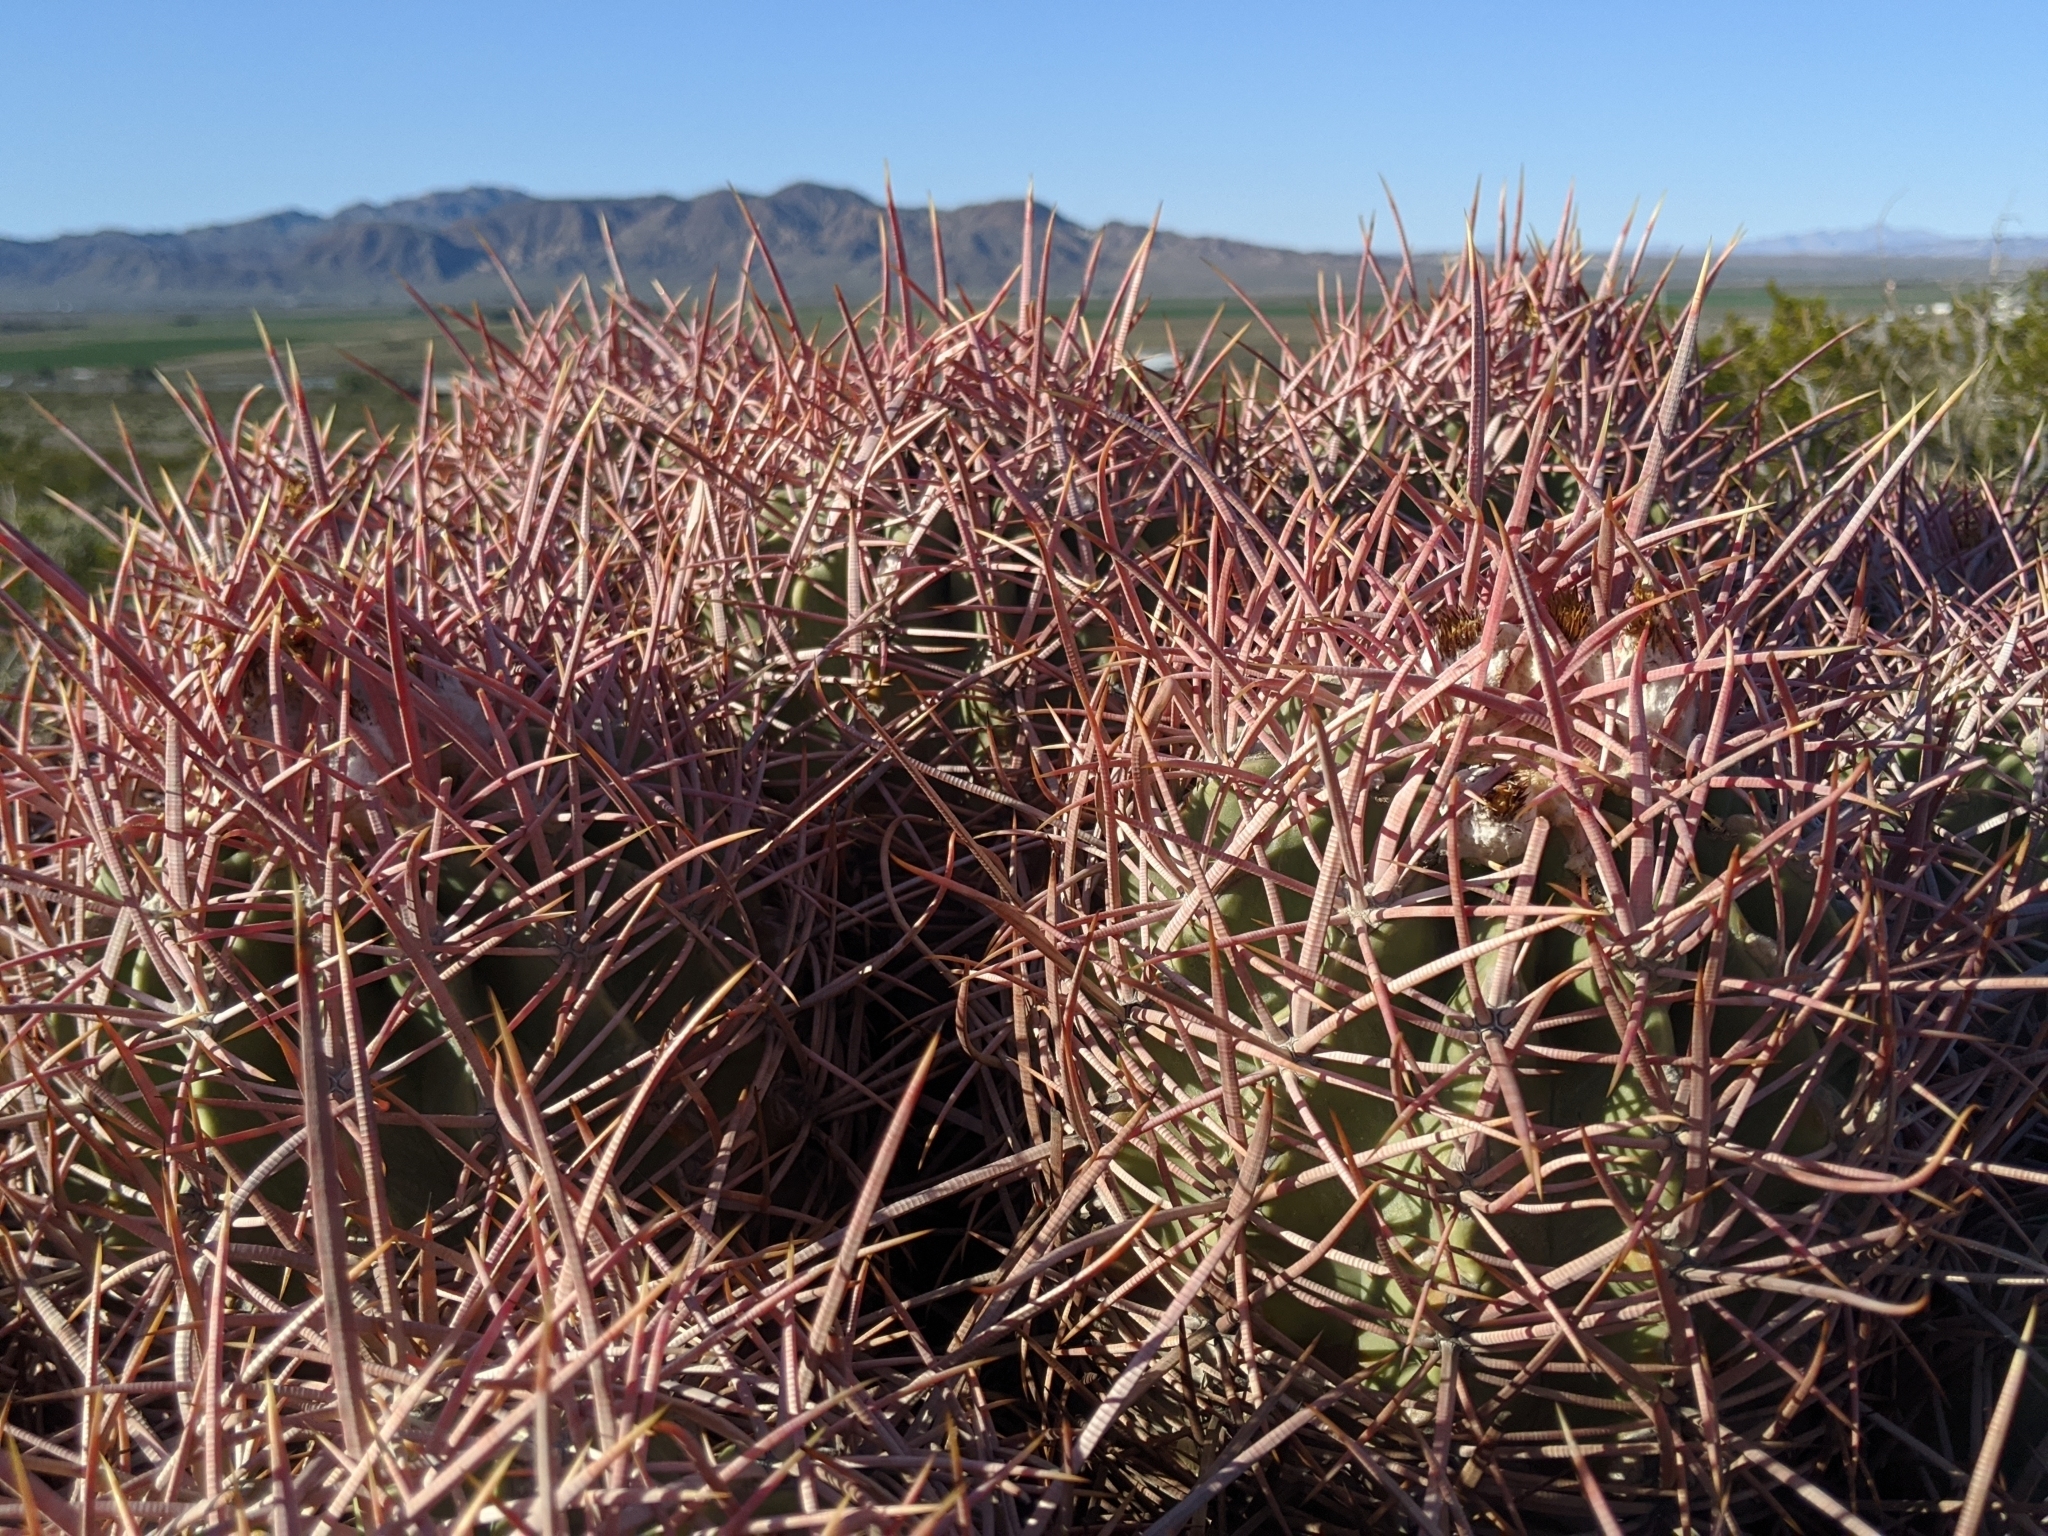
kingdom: Plantae
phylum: Tracheophyta
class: Magnoliopsida
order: Caryophyllales
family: Cactaceae
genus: Echinocactus
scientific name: Echinocactus polycephalus
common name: Cottontop cactus
